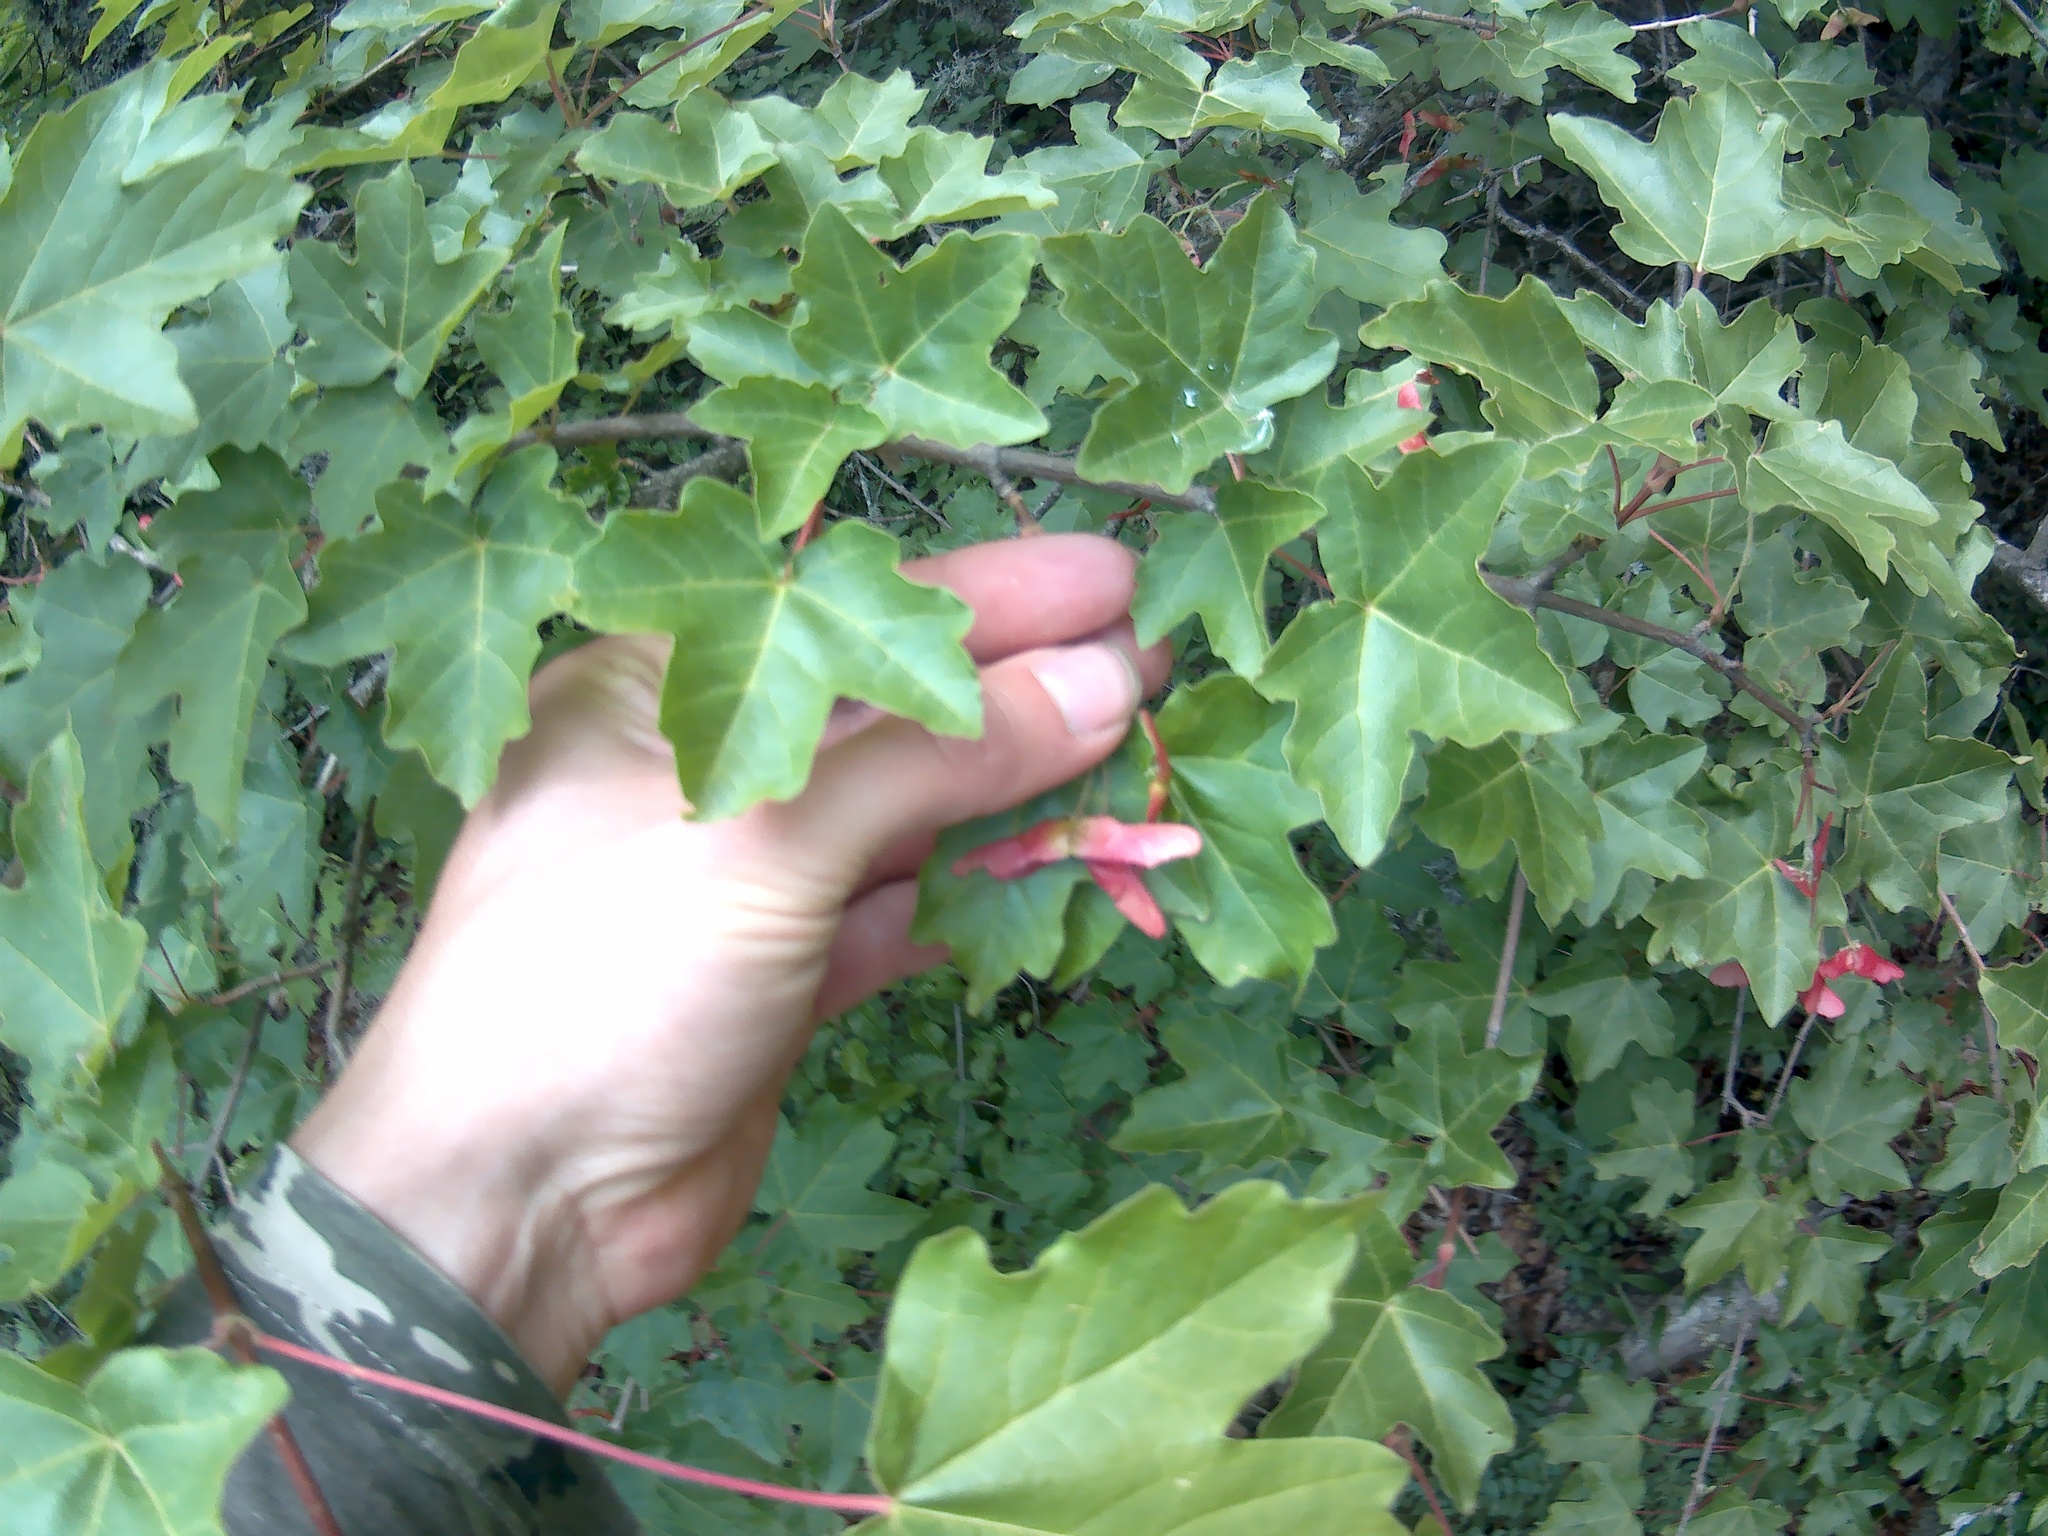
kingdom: Plantae
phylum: Tracheophyta
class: Magnoliopsida
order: Sapindales
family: Sapindaceae
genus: Acer
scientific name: Acer campestre
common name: Field maple
